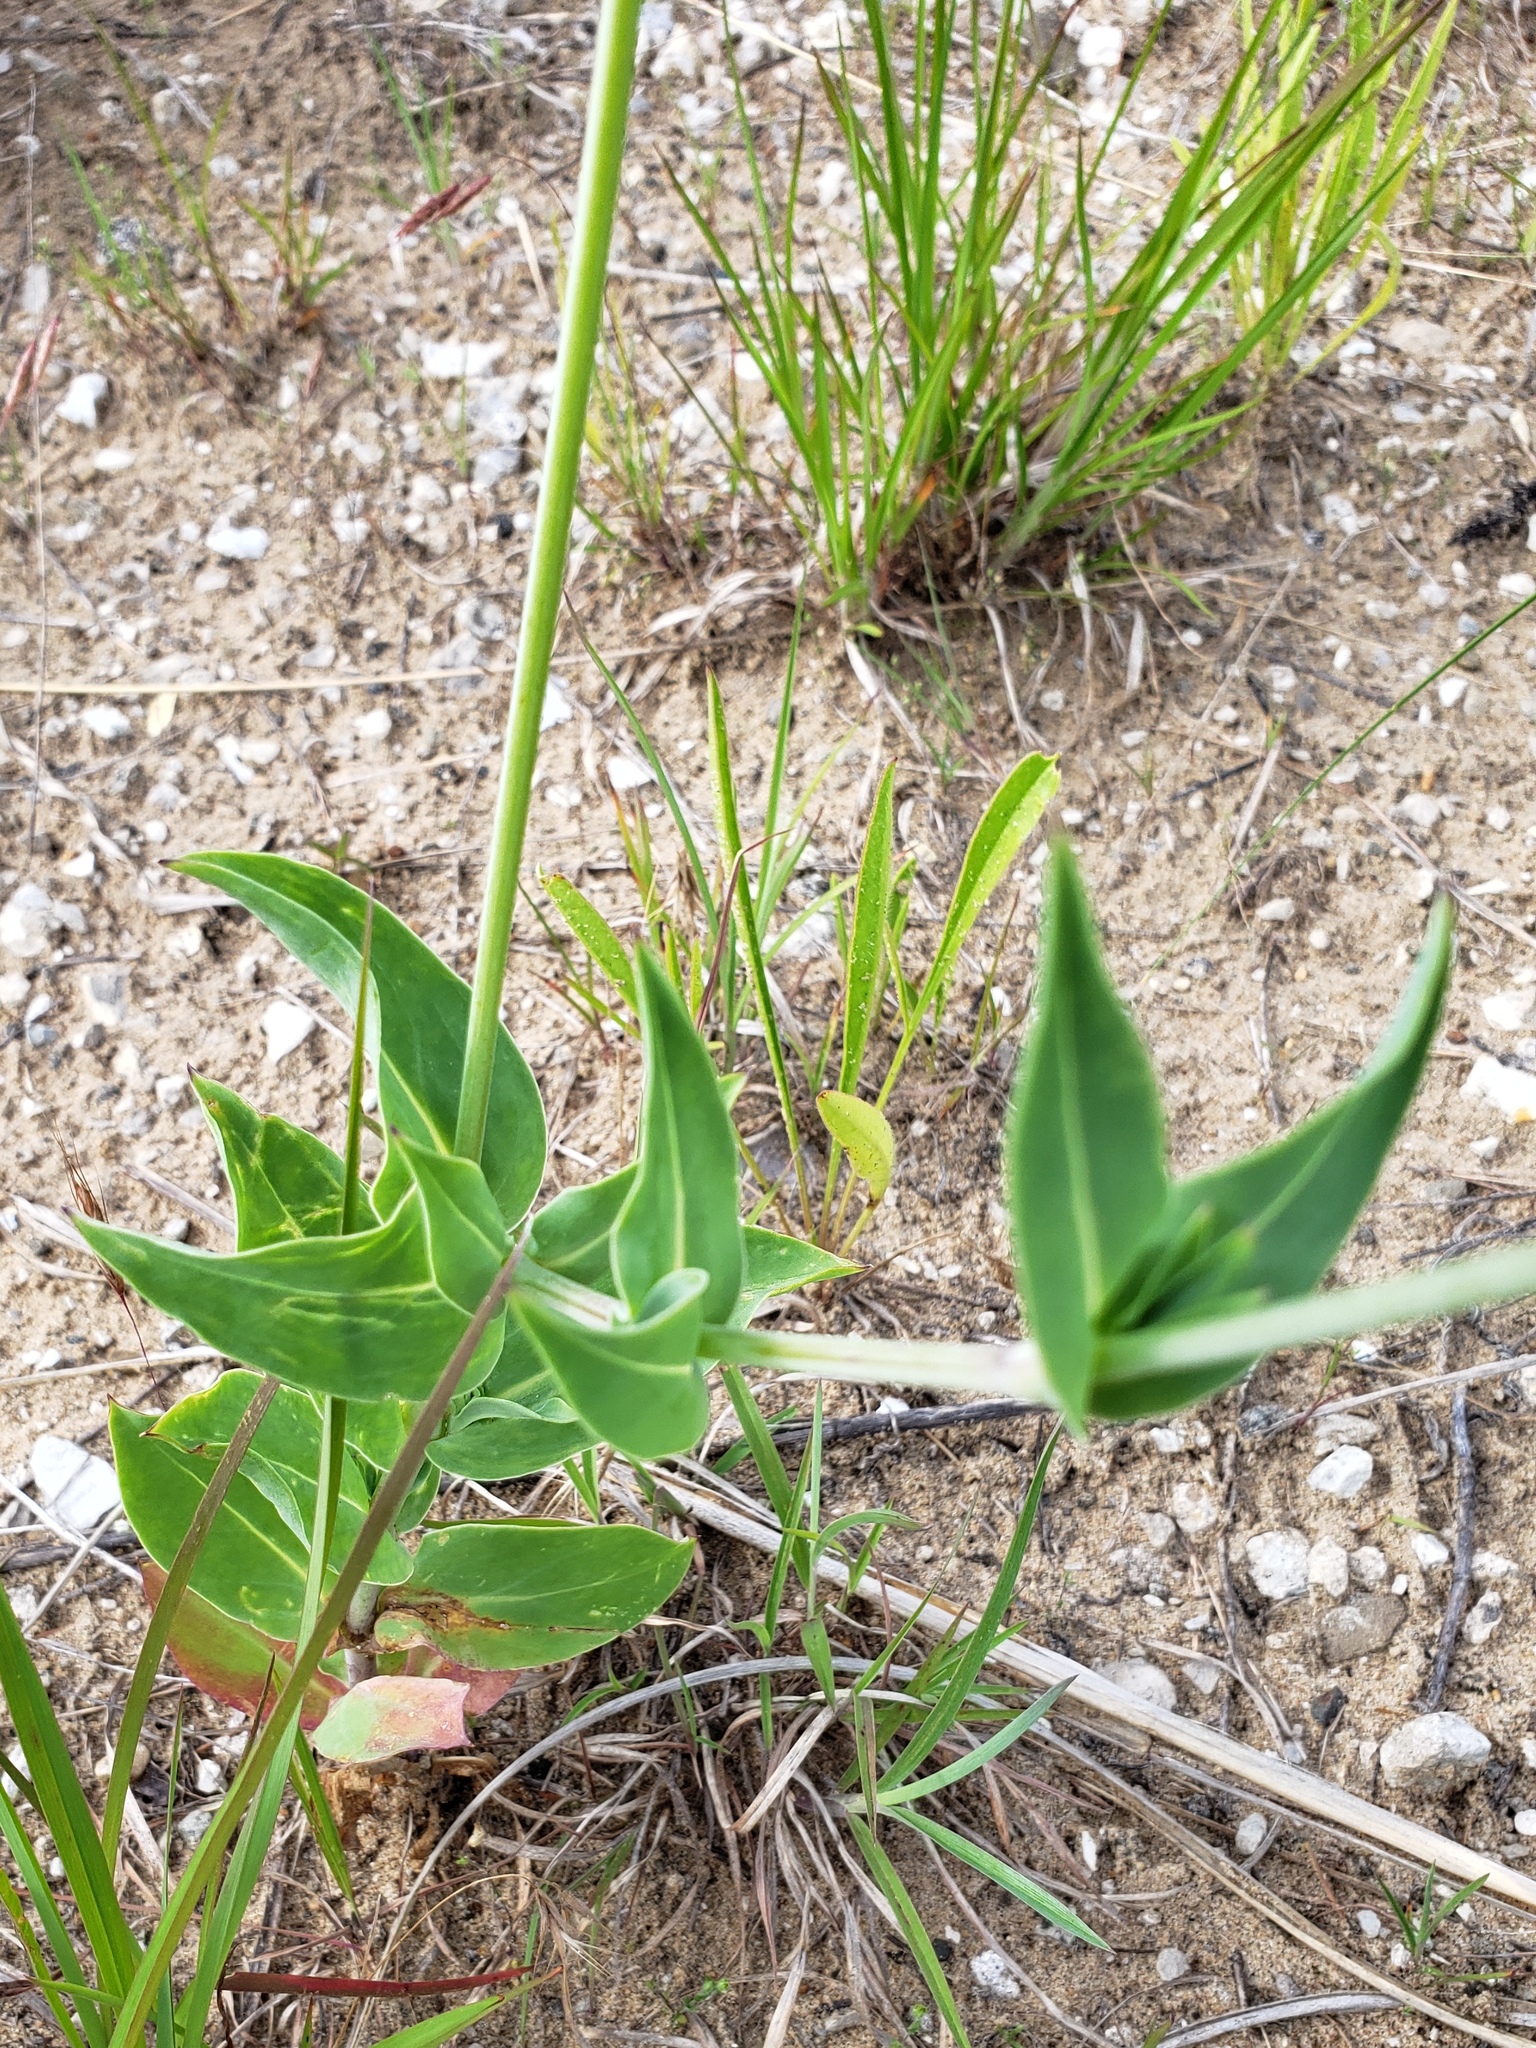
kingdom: Plantae
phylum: Tracheophyta
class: Magnoliopsida
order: Caryophyllales
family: Caryophyllaceae
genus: Silene
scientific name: Silene vulgaris
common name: Bladder campion
